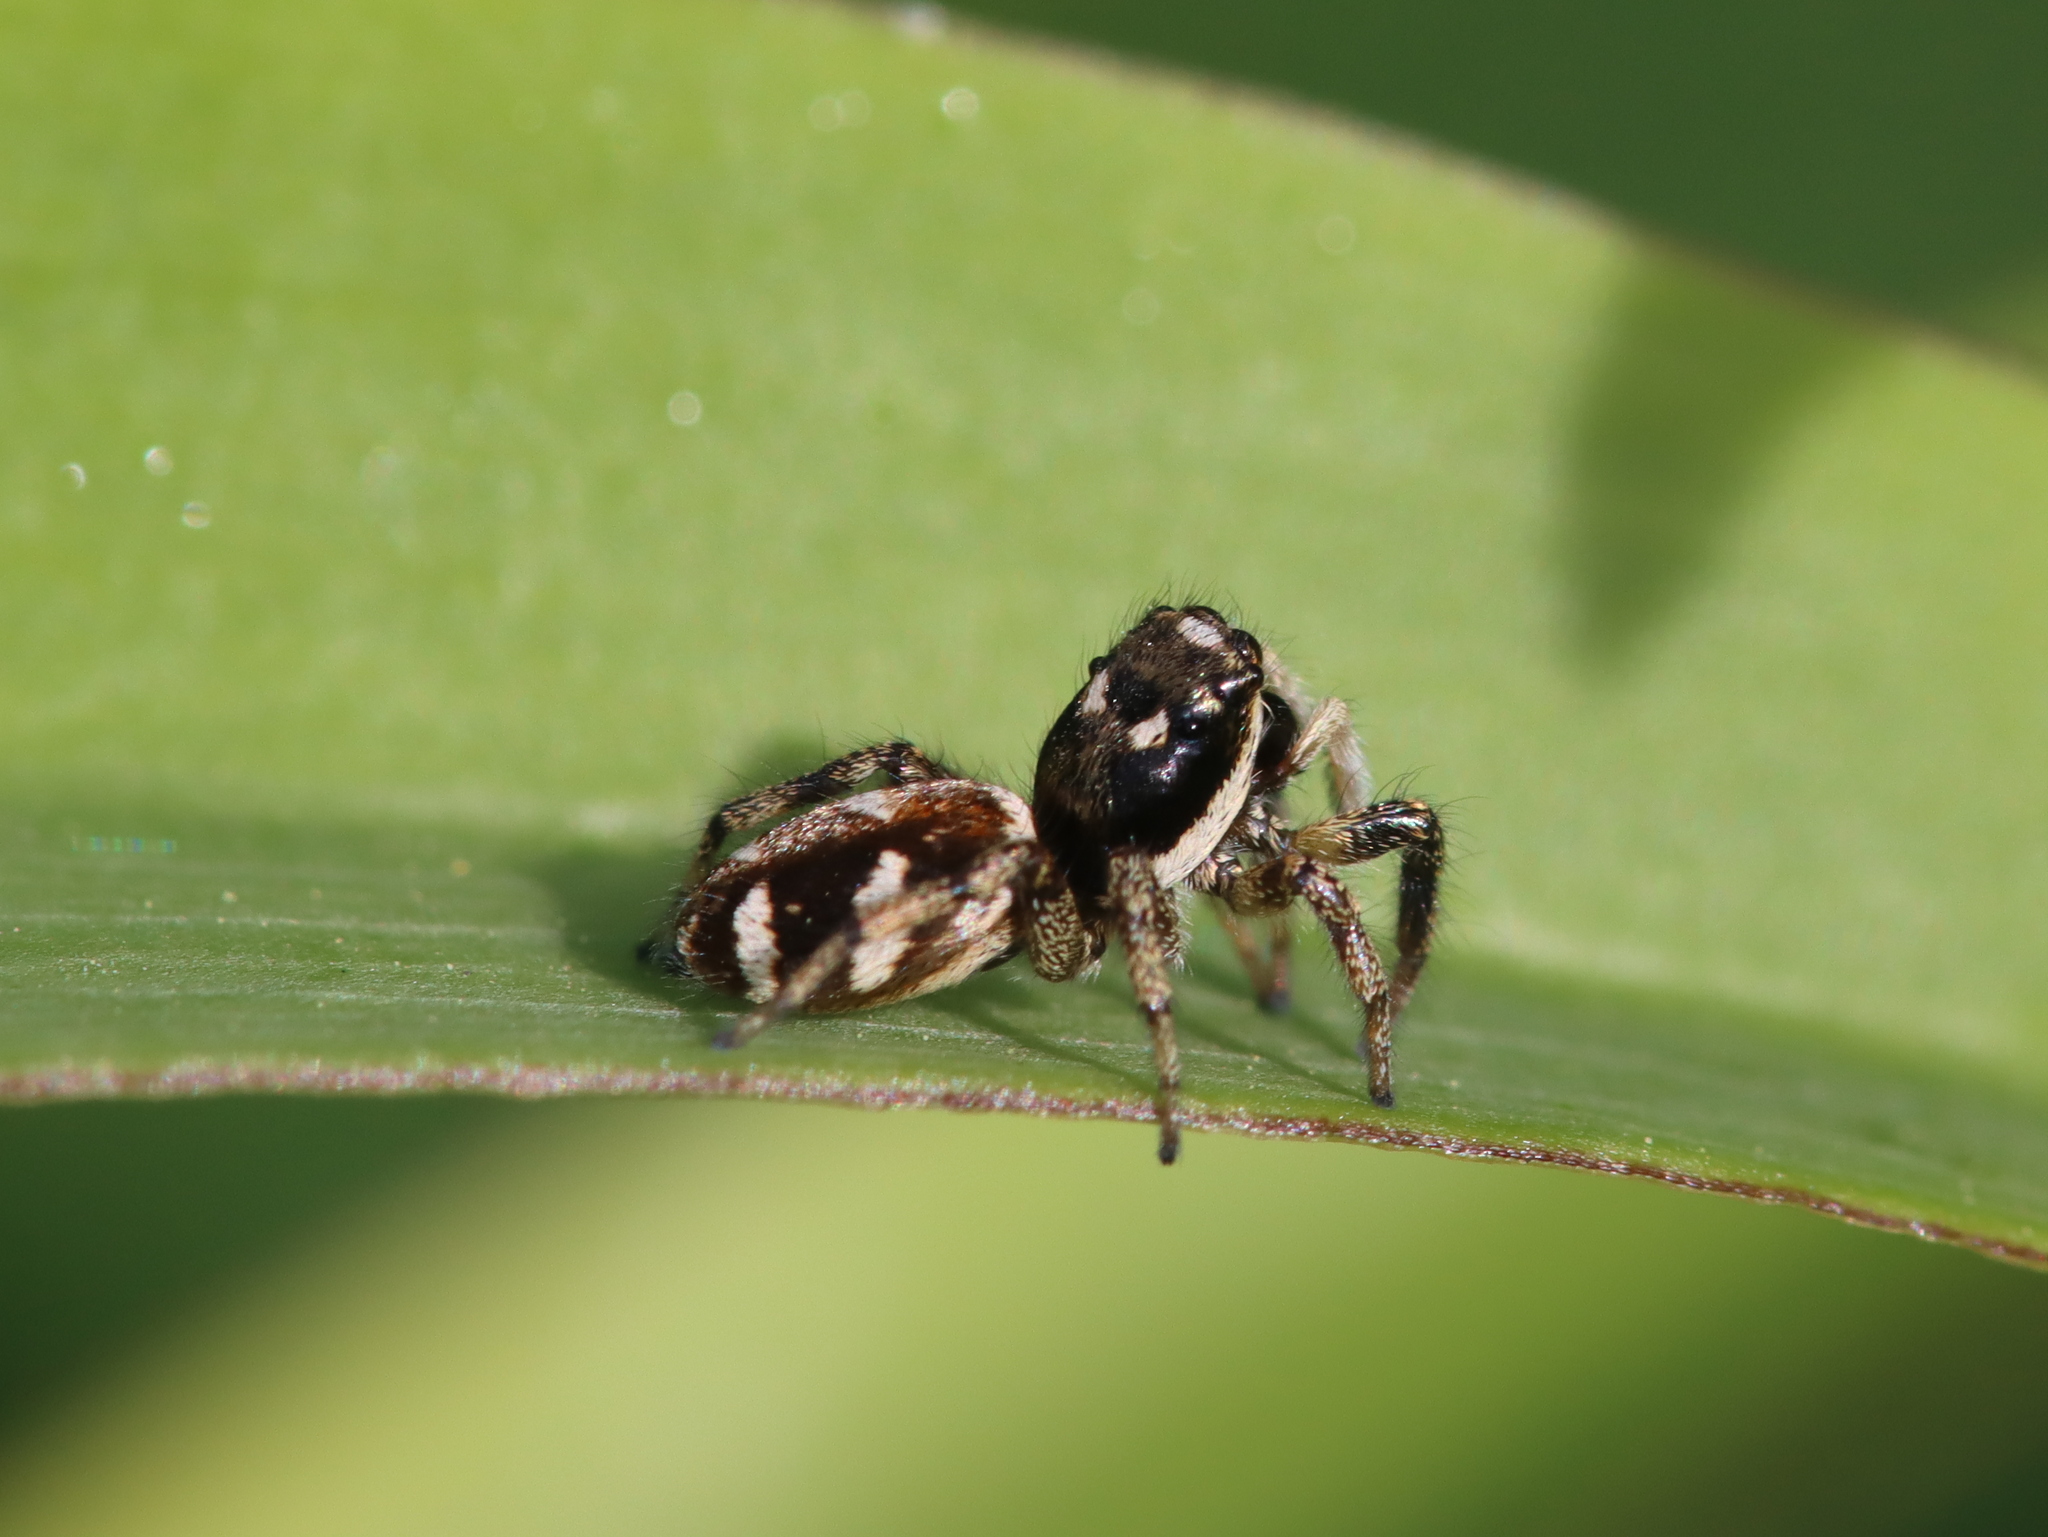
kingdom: Animalia
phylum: Arthropoda
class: Arachnida
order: Araneae
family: Salticidae
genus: Salticus
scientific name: Salticus scenicus
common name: Zebra jumper
